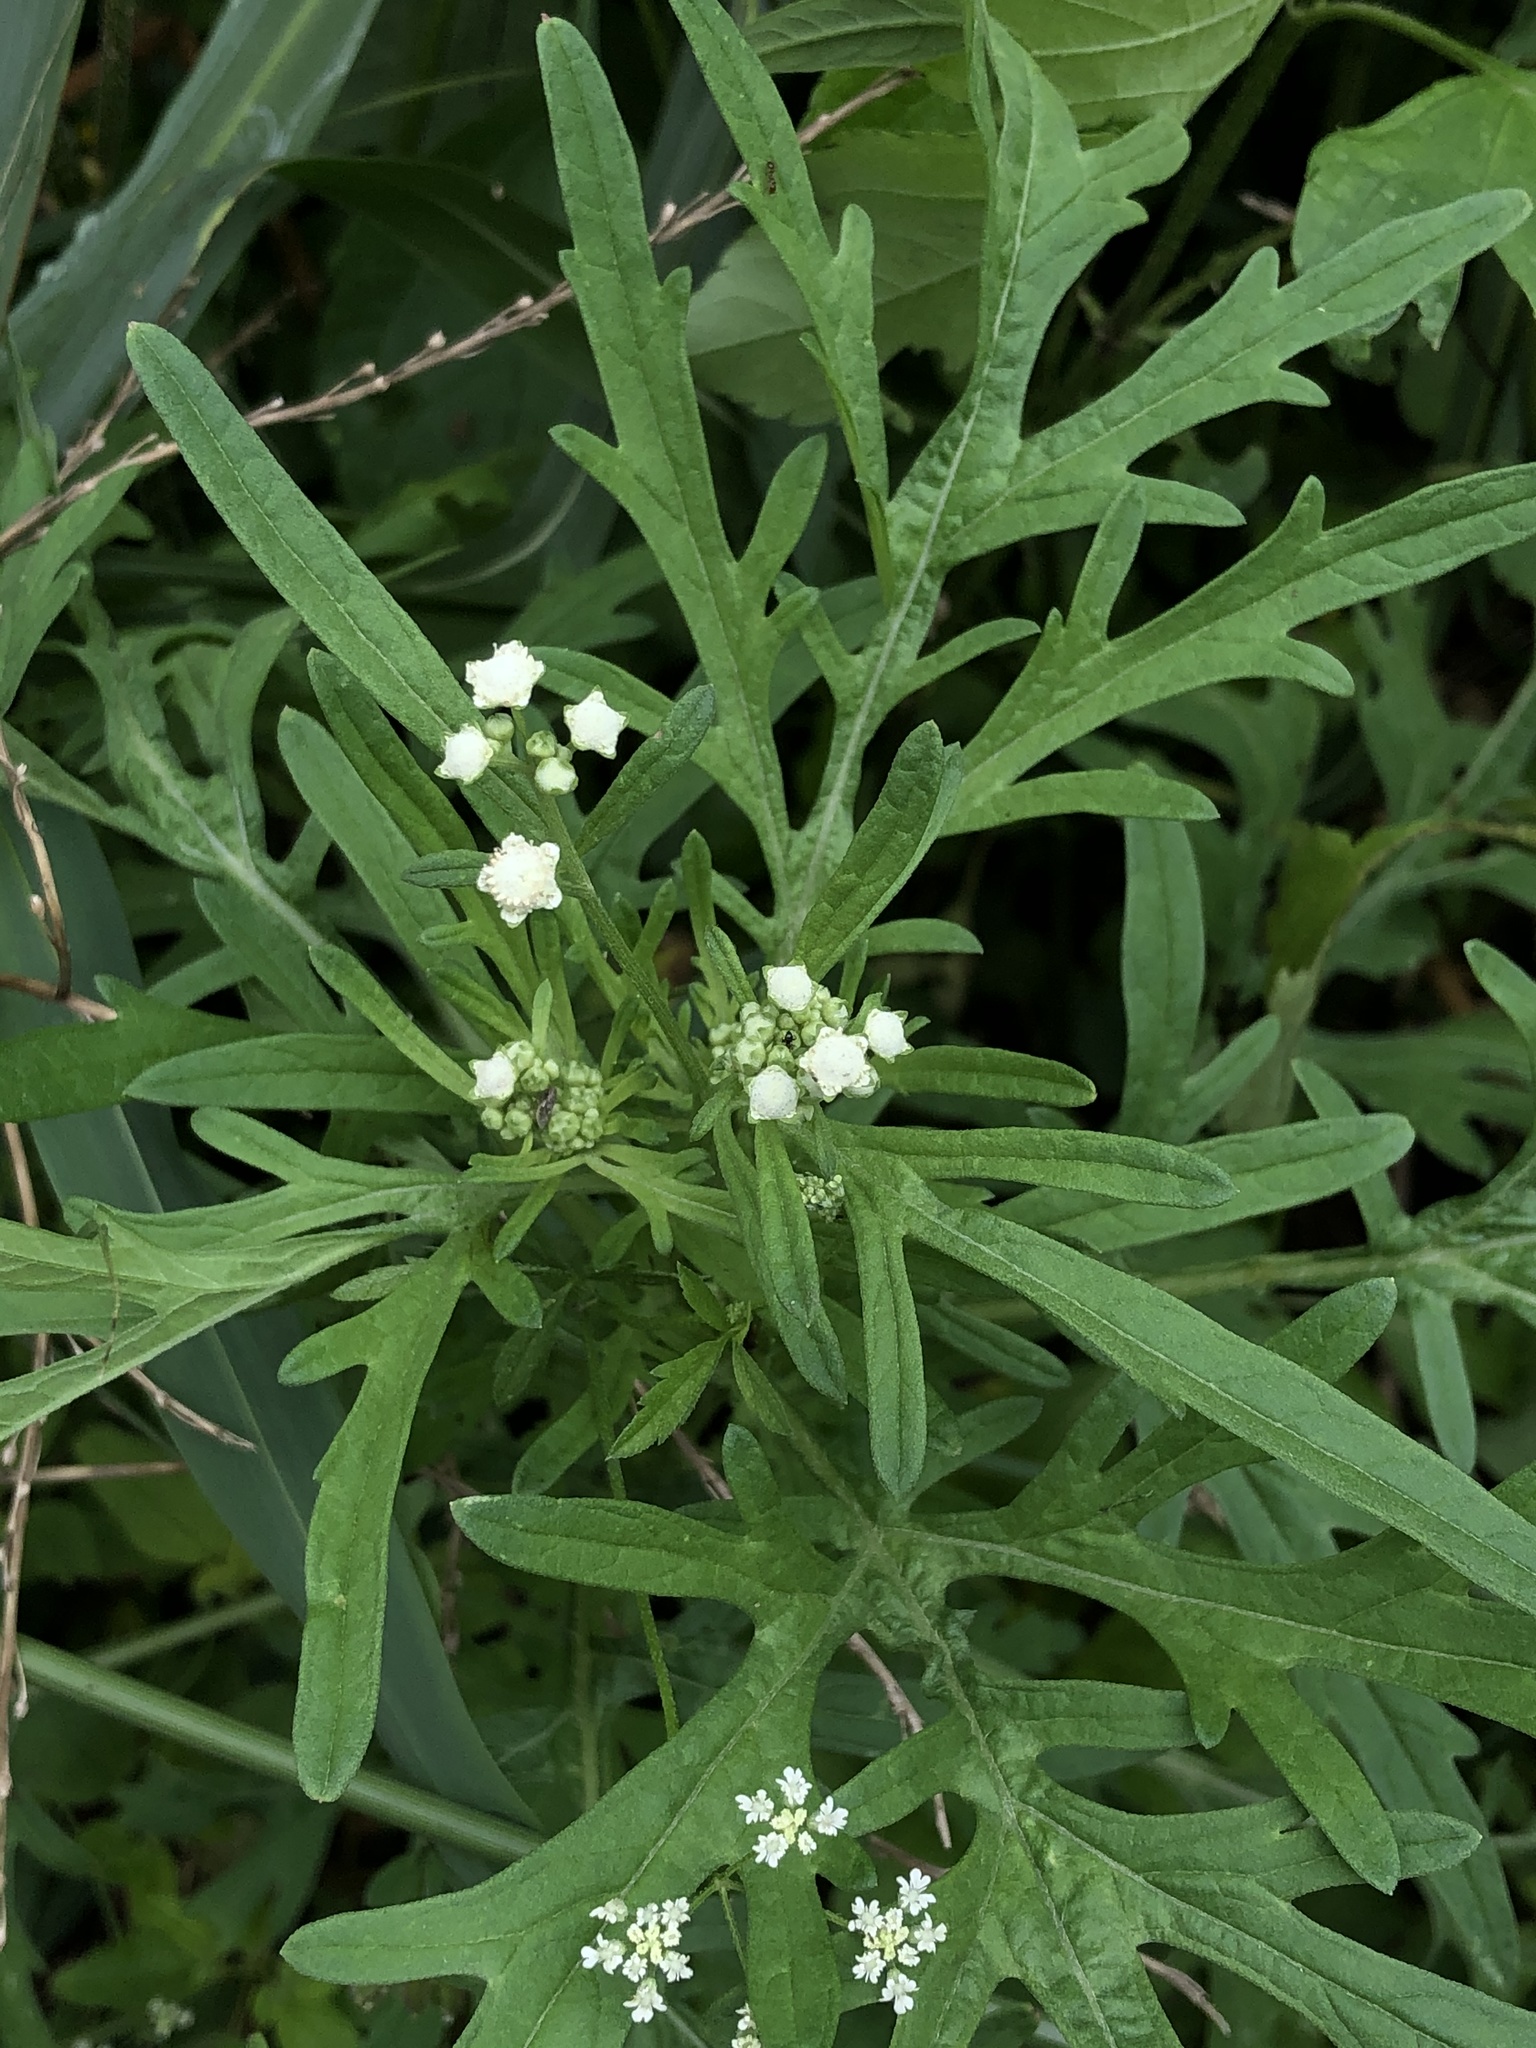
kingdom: Plantae
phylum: Tracheophyta
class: Magnoliopsida
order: Asterales
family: Asteraceae
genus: Parthenium
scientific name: Parthenium hysterophorus
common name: Santa maria feverfew
